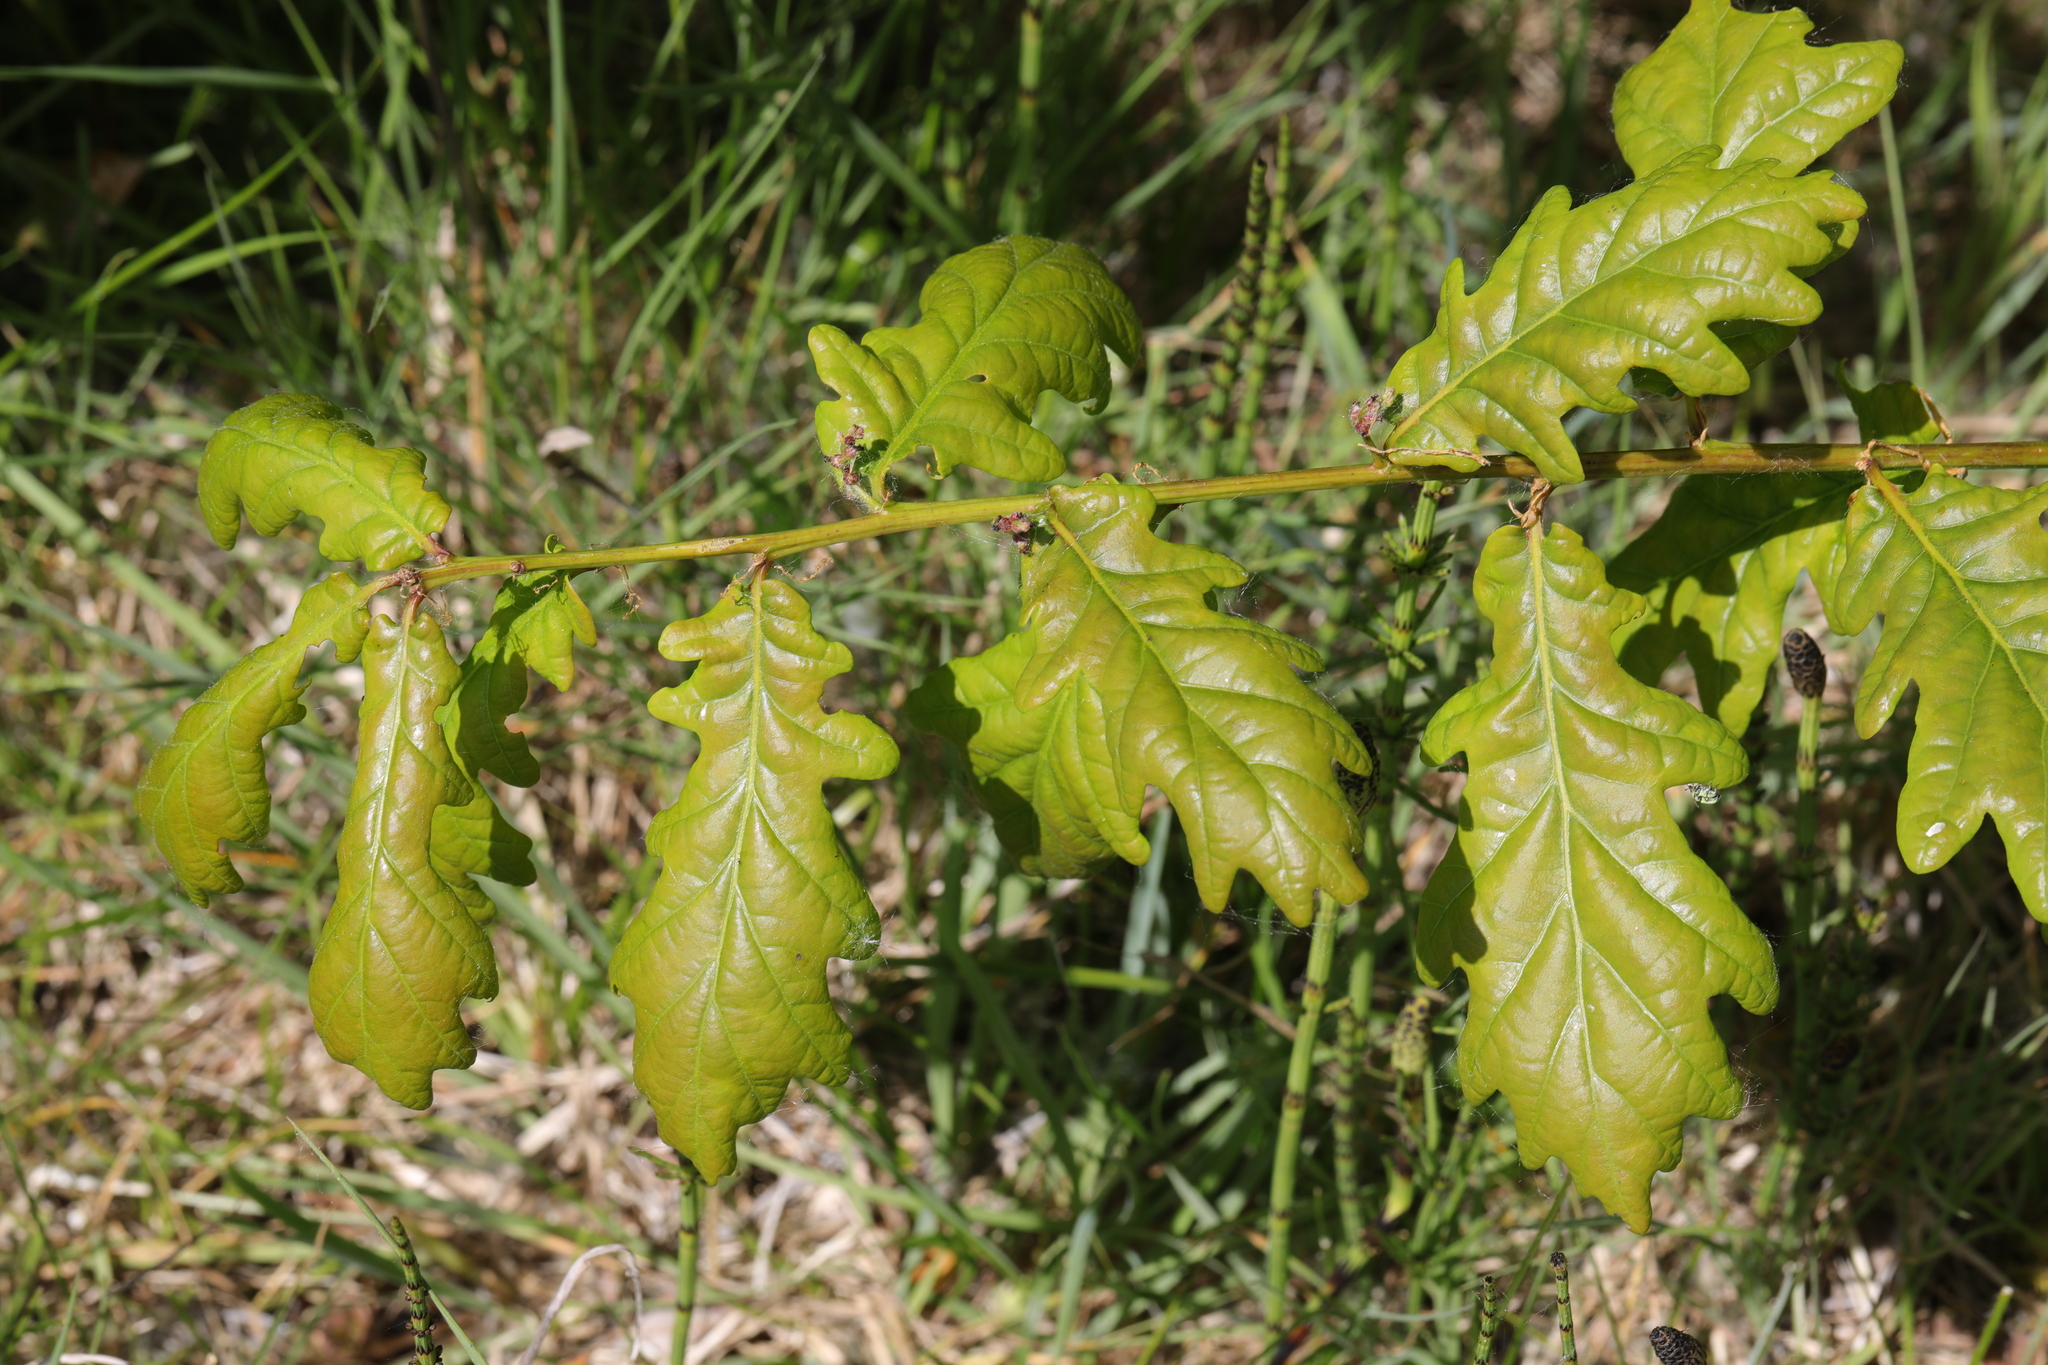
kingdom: Plantae
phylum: Tracheophyta
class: Magnoliopsida
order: Fagales
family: Fagaceae
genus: Quercus
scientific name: Quercus robur
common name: Pedunculate oak
